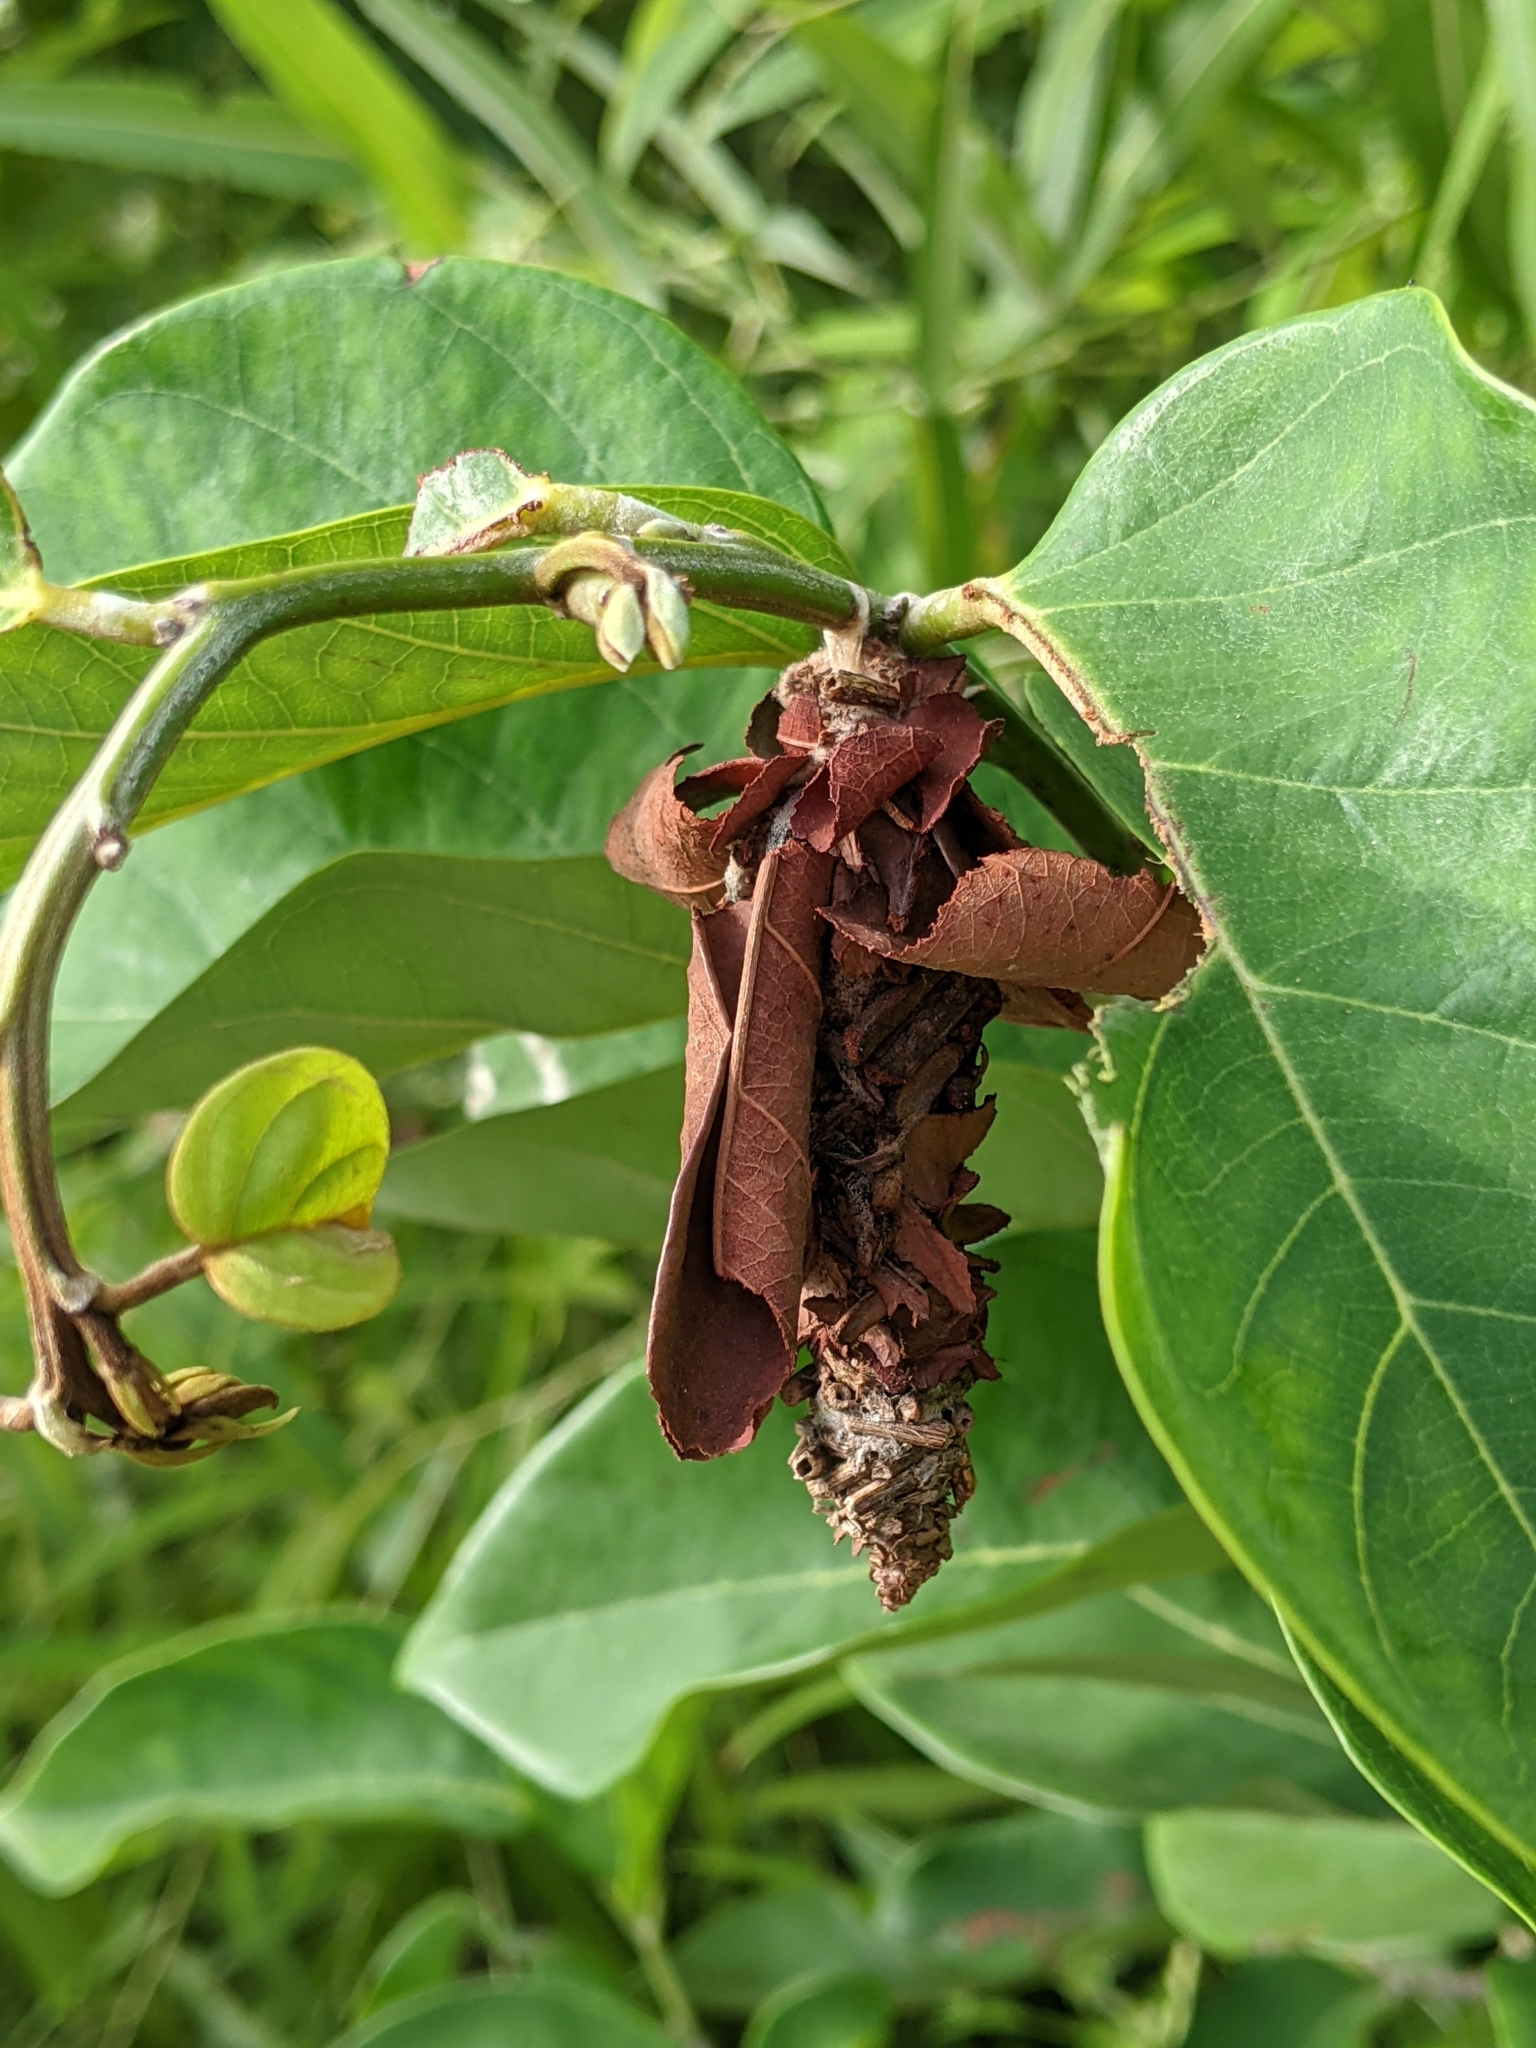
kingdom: Animalia
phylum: Arthropoda
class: Insecta
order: Lepidoptera
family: Psychidae
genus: Oiketicus
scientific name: Oiketicus
